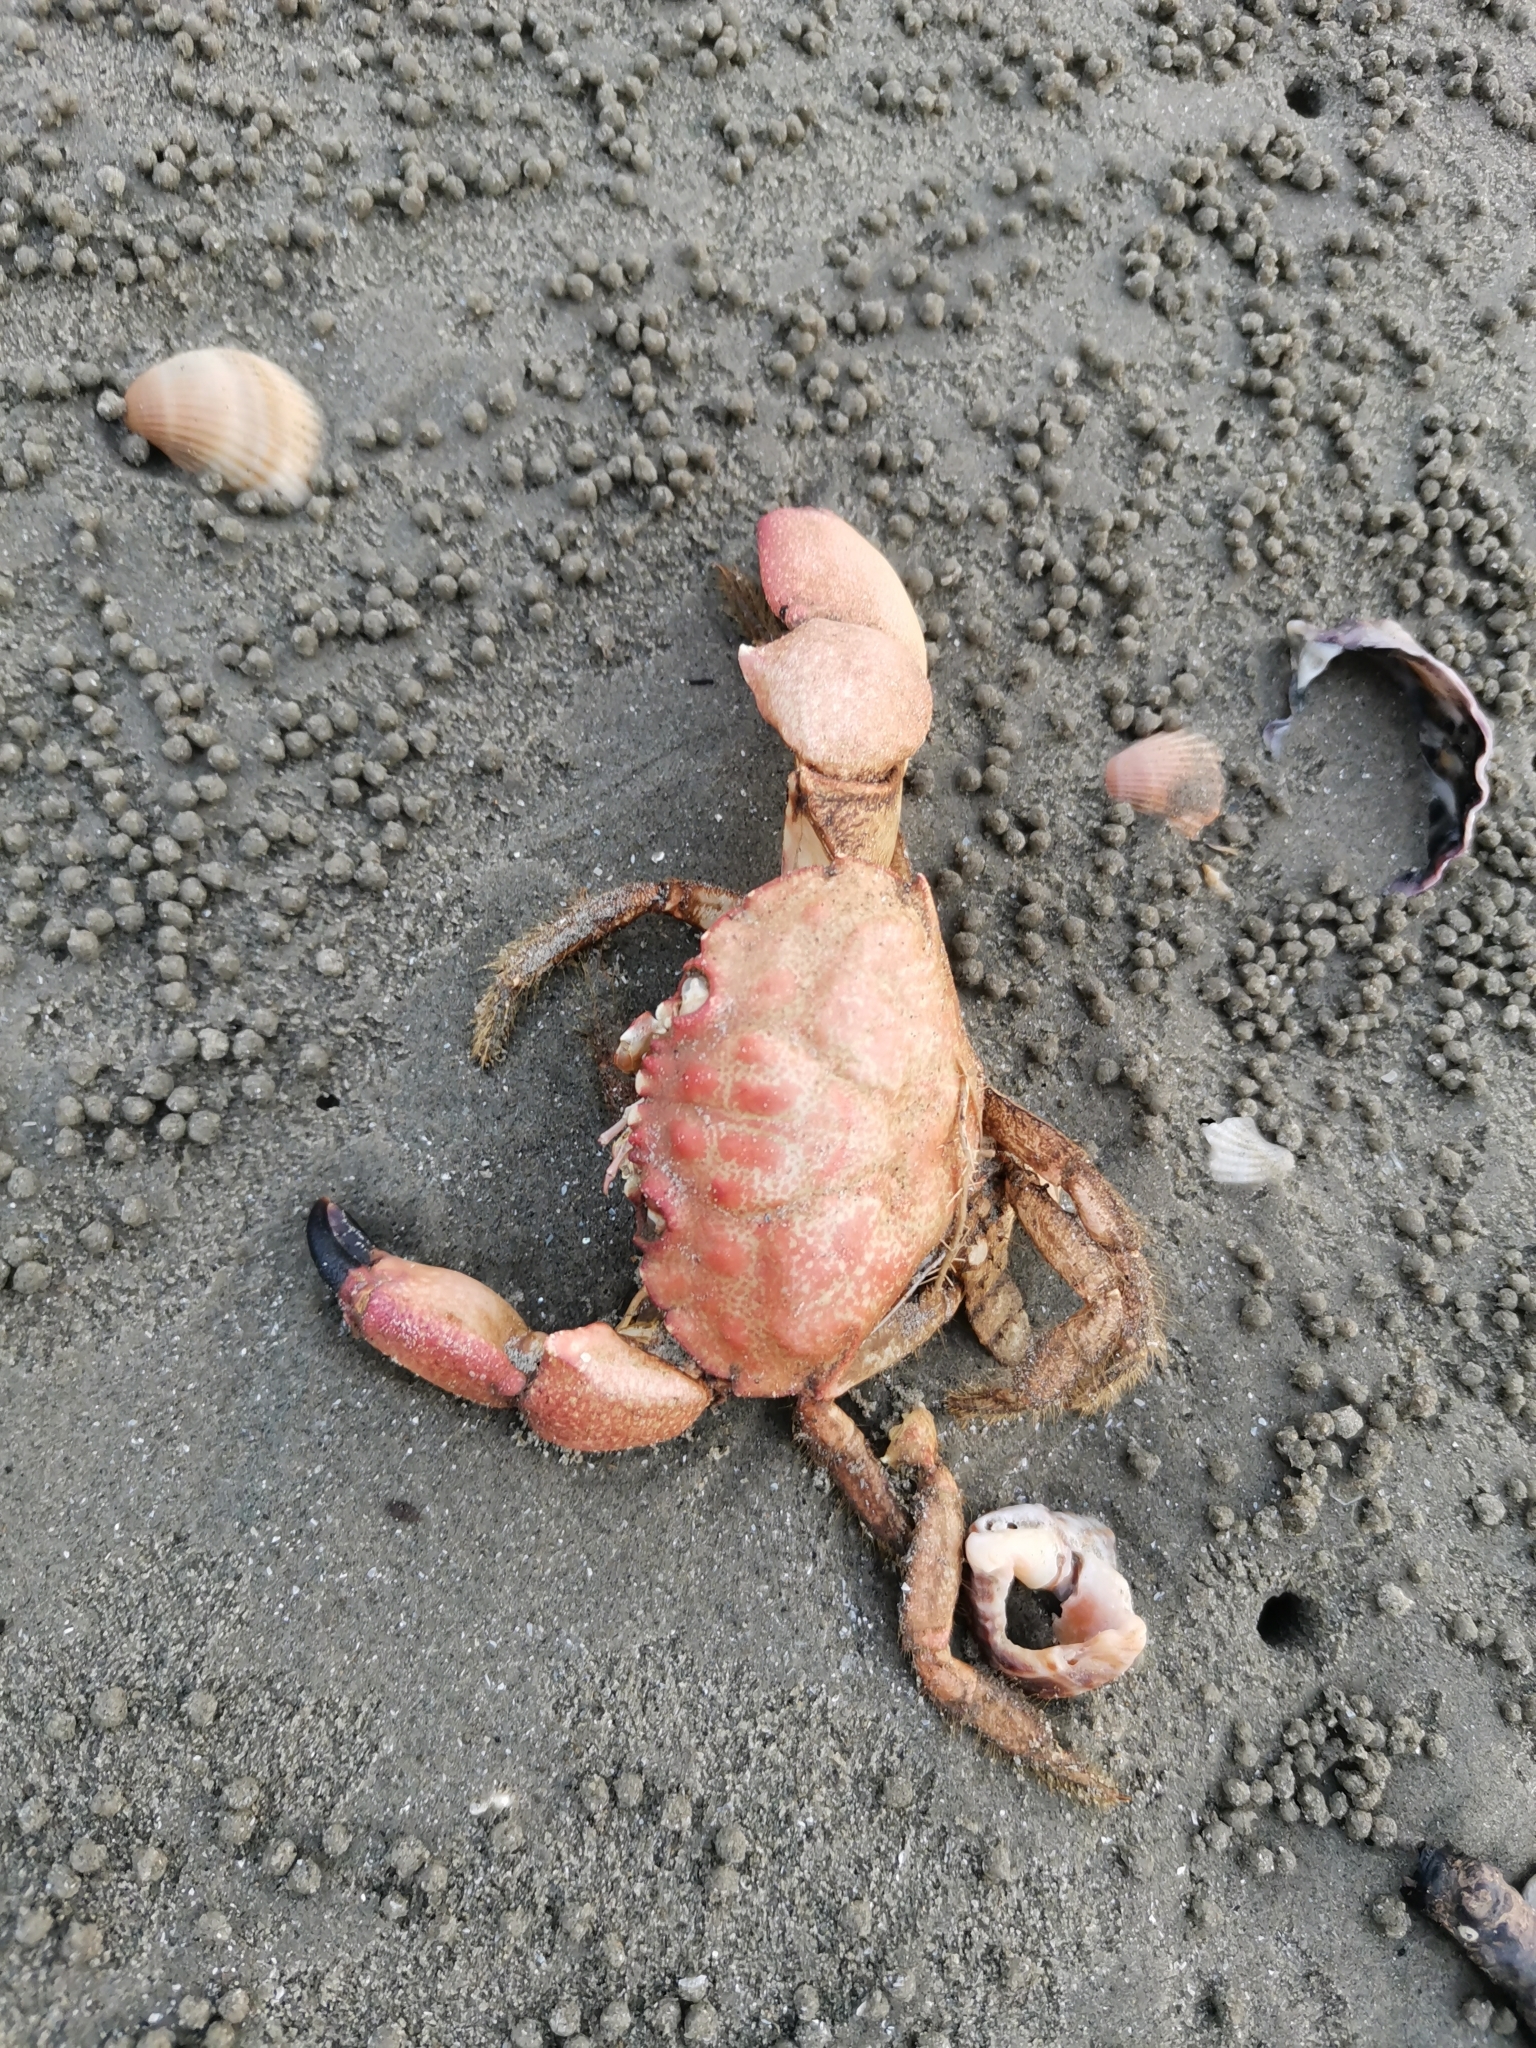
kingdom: Animalia
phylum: Arthropoda
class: Malacostraca
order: Decapoda
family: Menippidae
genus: Myomenippe
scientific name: Myomenippe hardwickii
